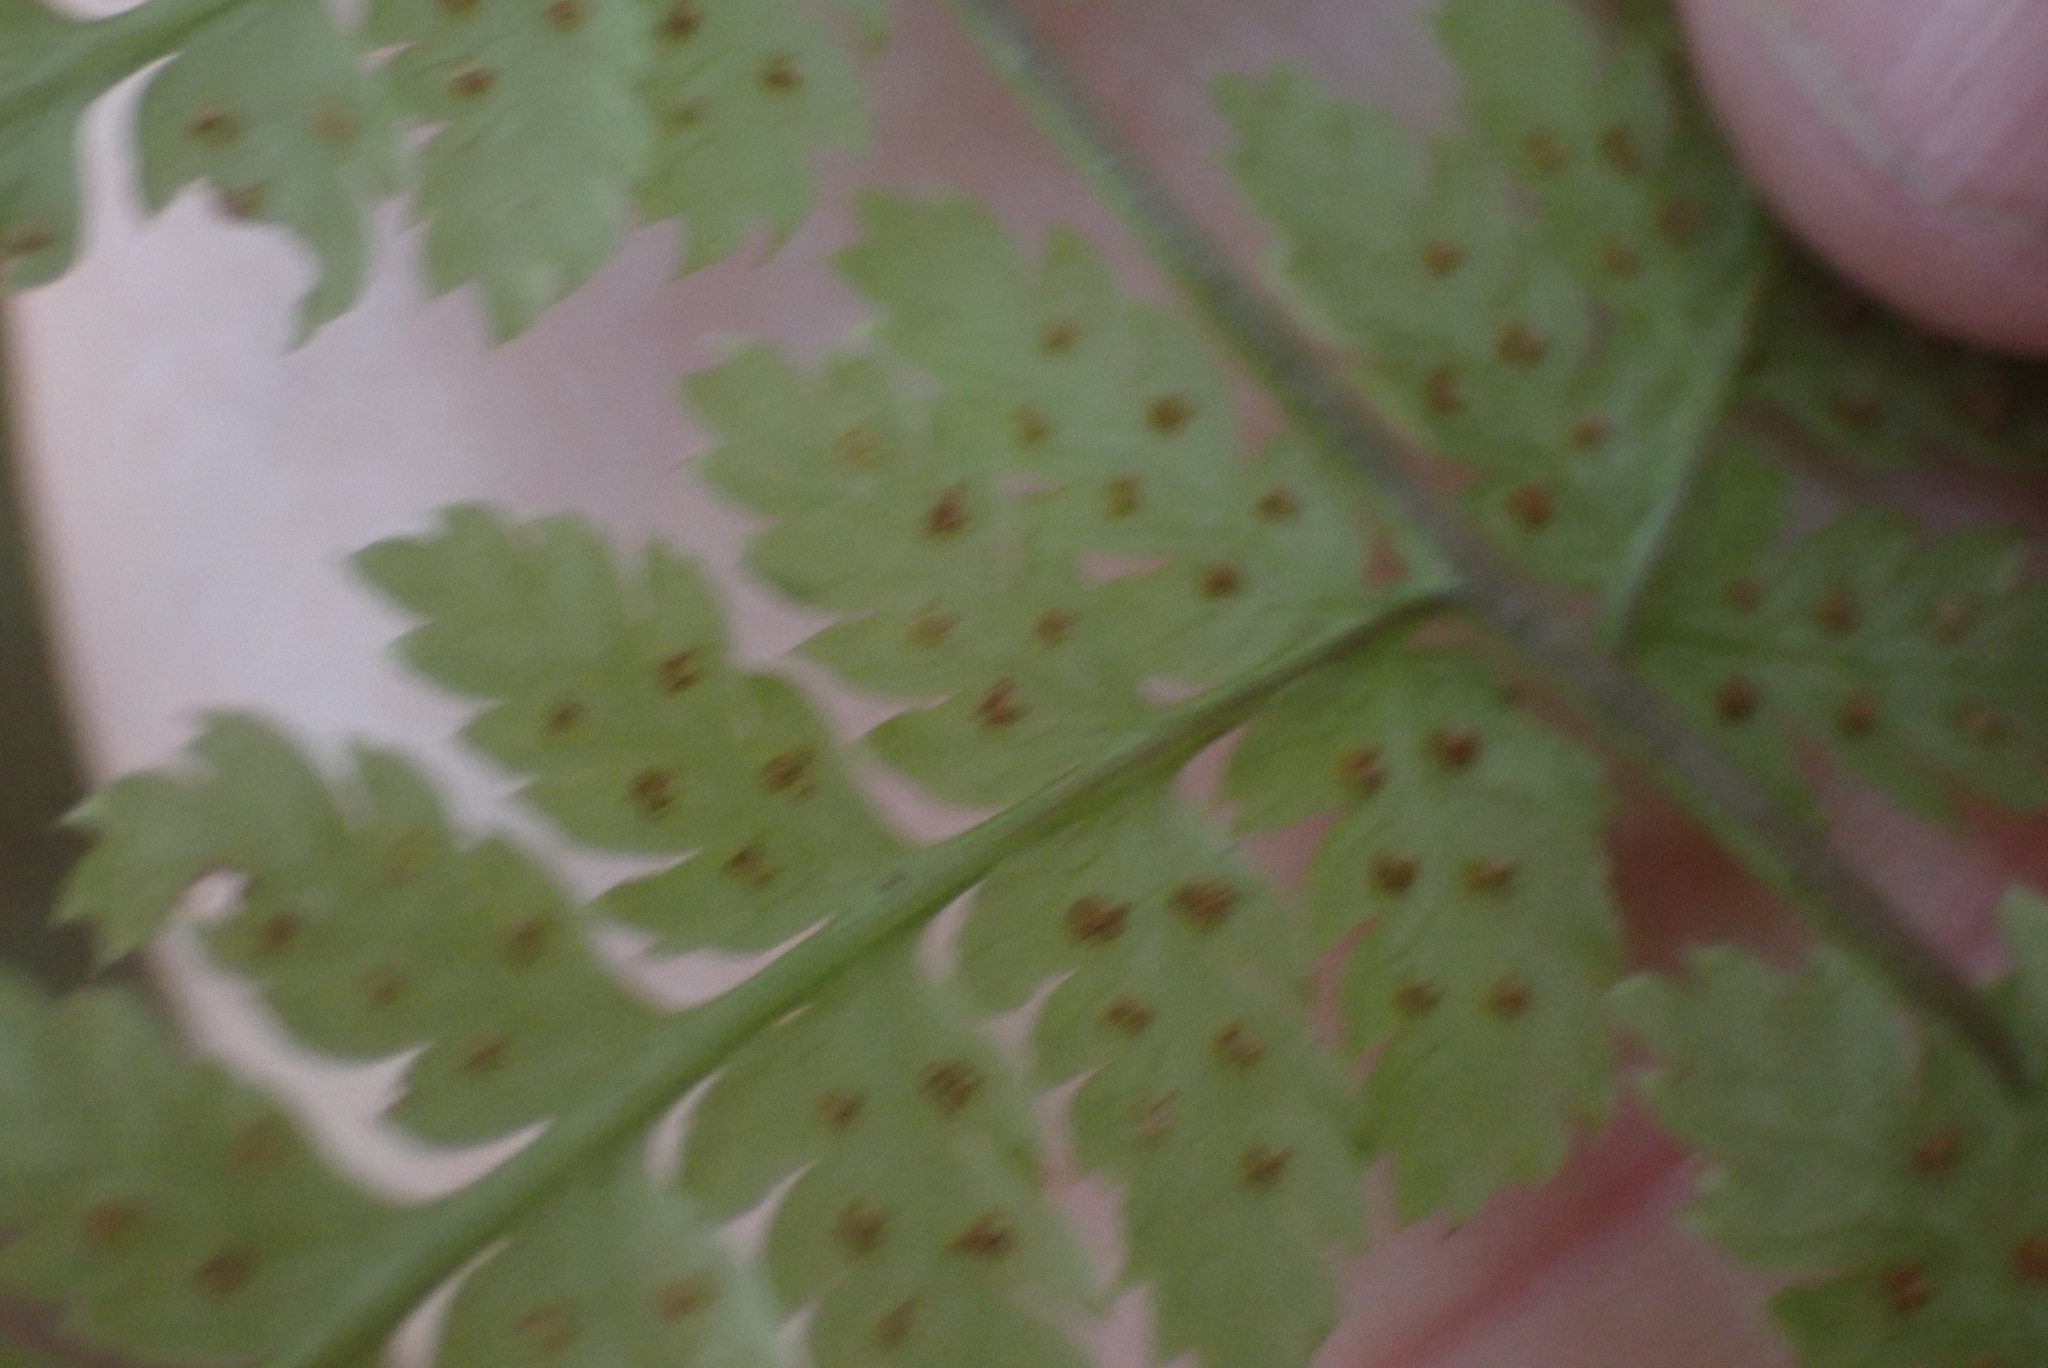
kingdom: Plantae
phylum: Tracheophyta
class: Polypodiopsida
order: Polypodiales
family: Dryopteridaceae
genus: Dryopteris
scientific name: Dryopteris expansa
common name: Northern buckler fern
